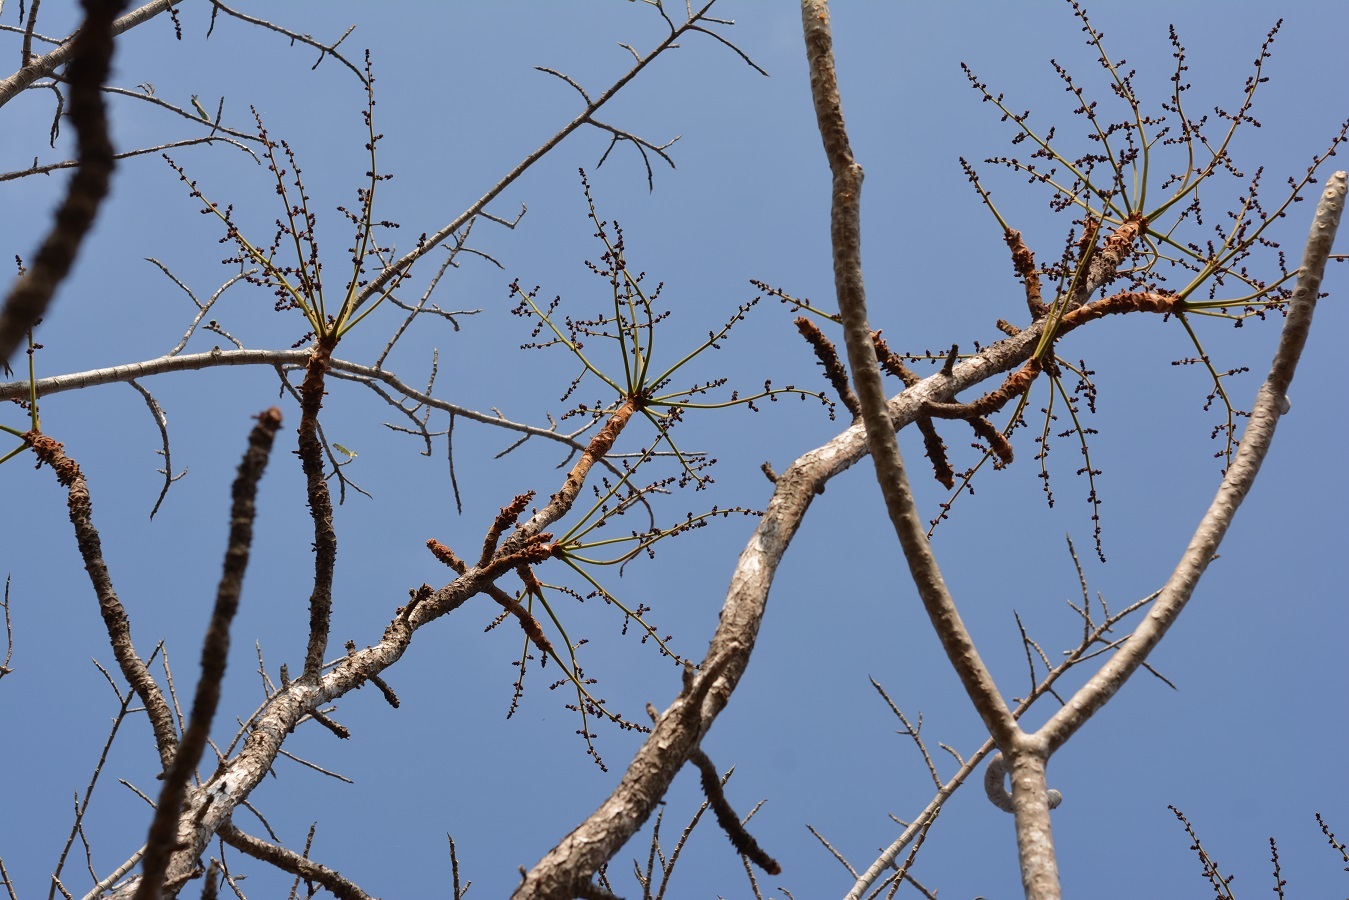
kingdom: Plantae
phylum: Tracheophyta
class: Magnoliopsida
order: Sapindales
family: Anacardiaceae
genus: Comocladia
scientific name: Comocladia guatemalensis
